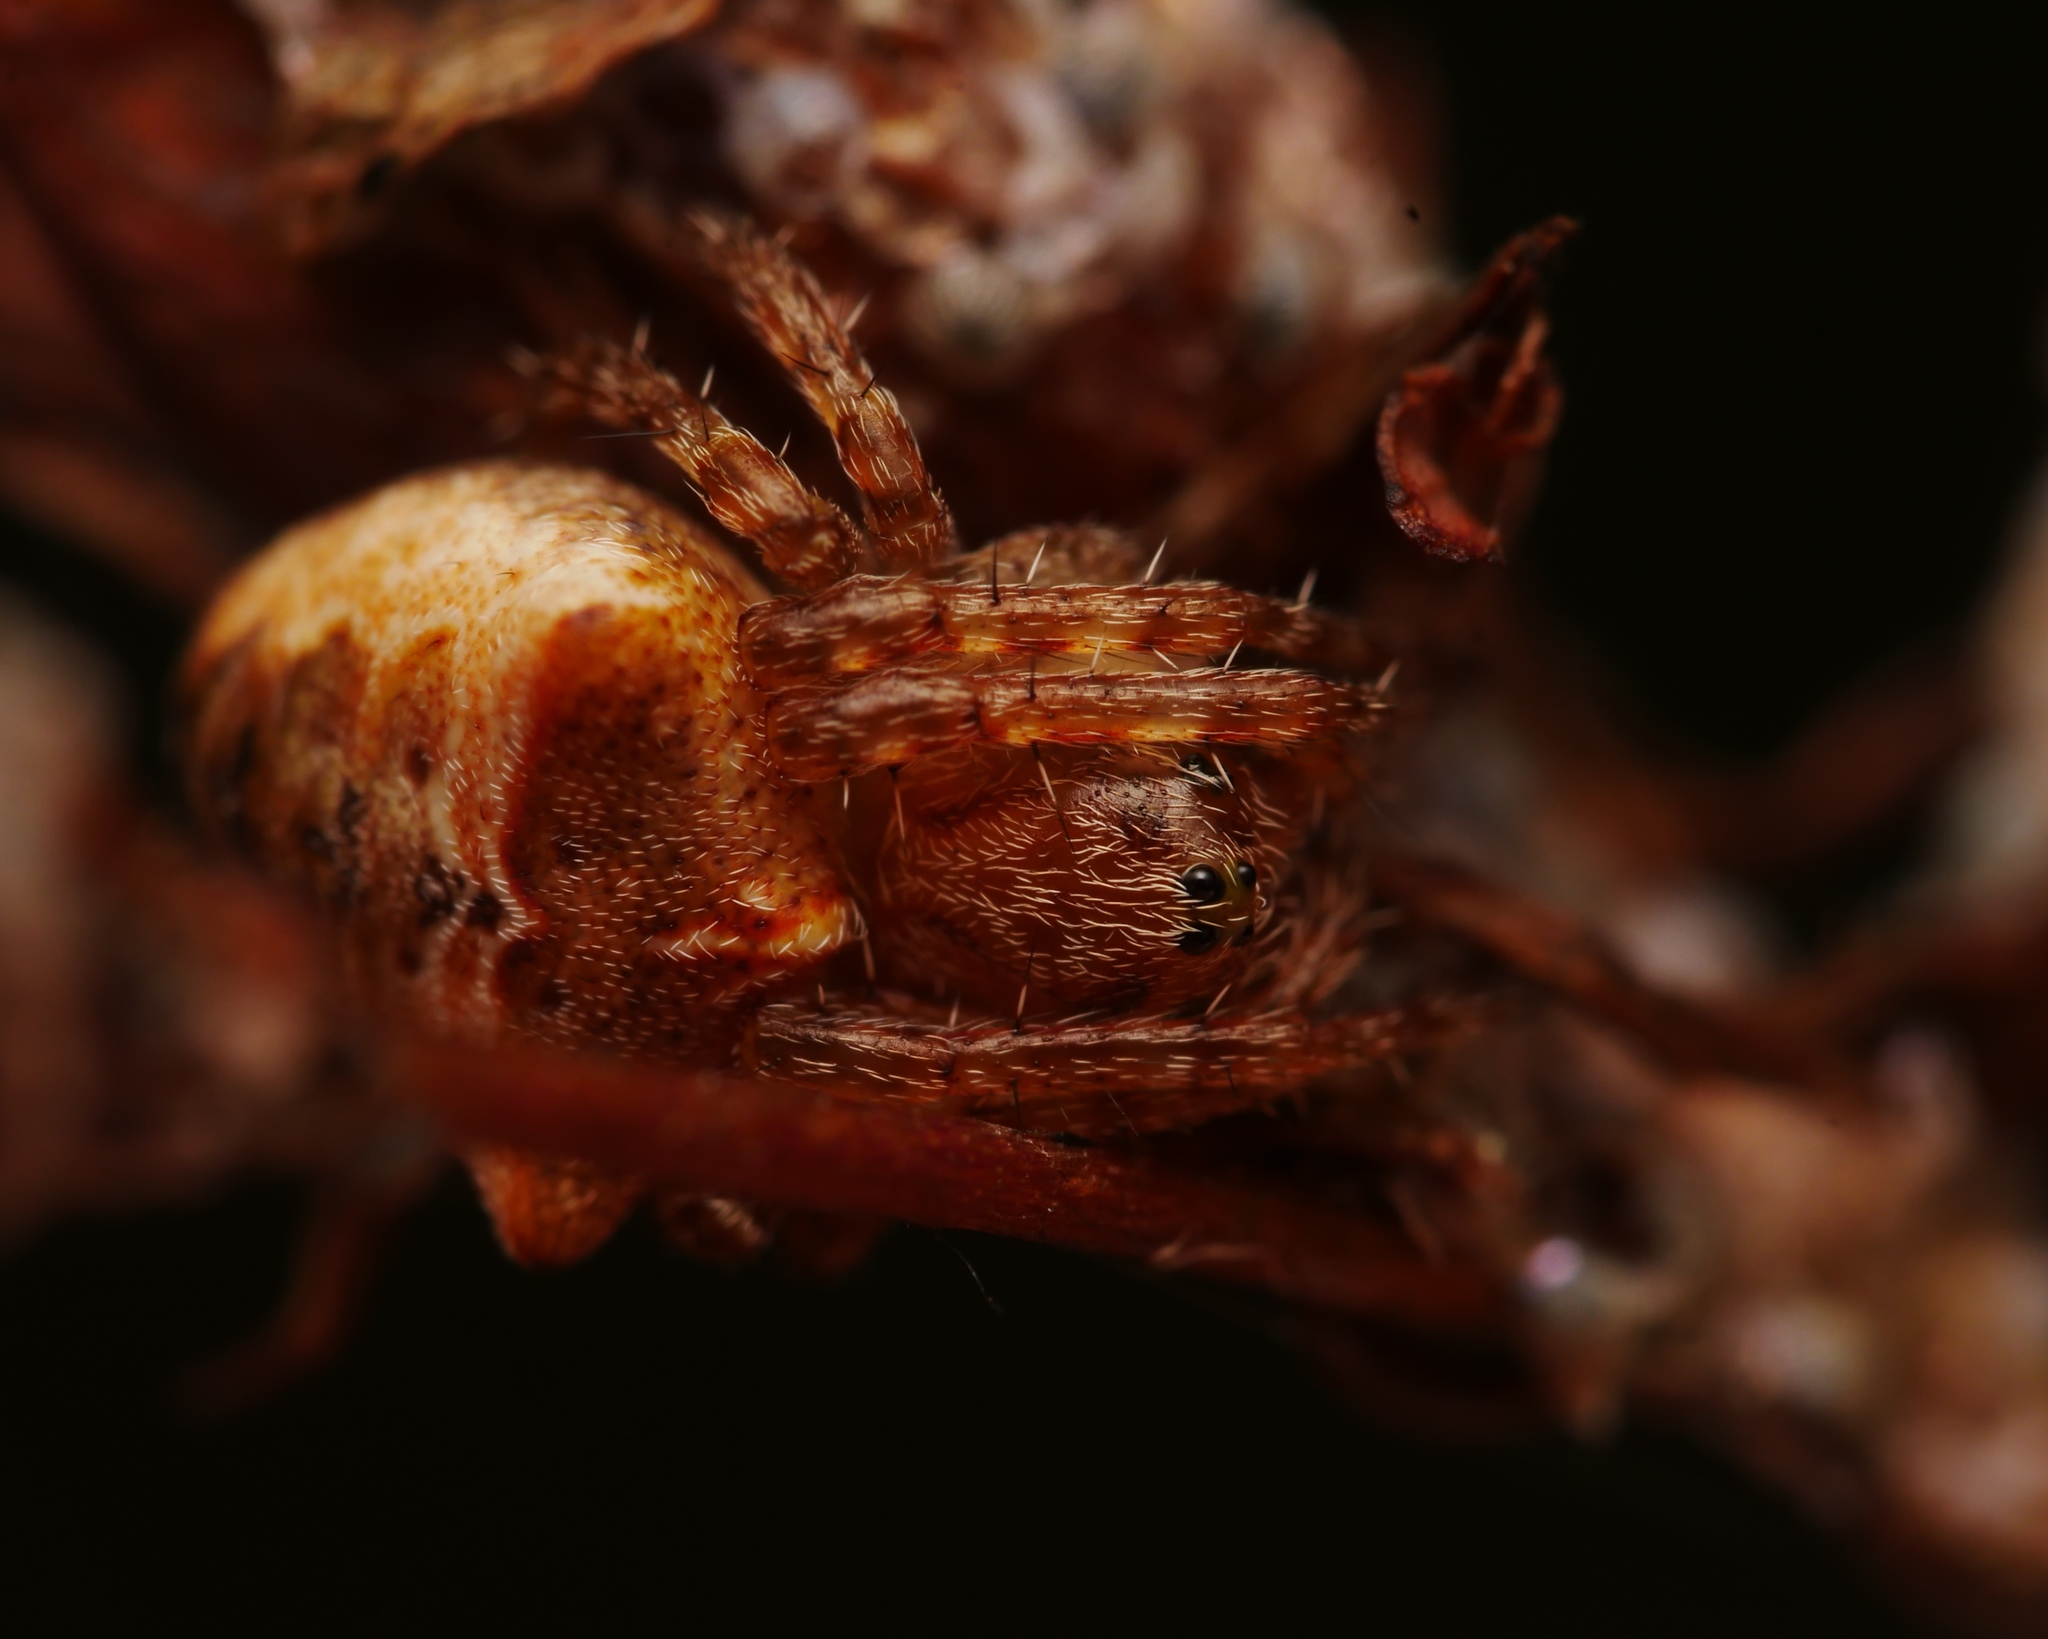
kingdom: Animalia
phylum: Arthropoda
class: Arachnida
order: Araneae
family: Araneidae
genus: Gibbaranea
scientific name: Gibbaranea bituberculata
